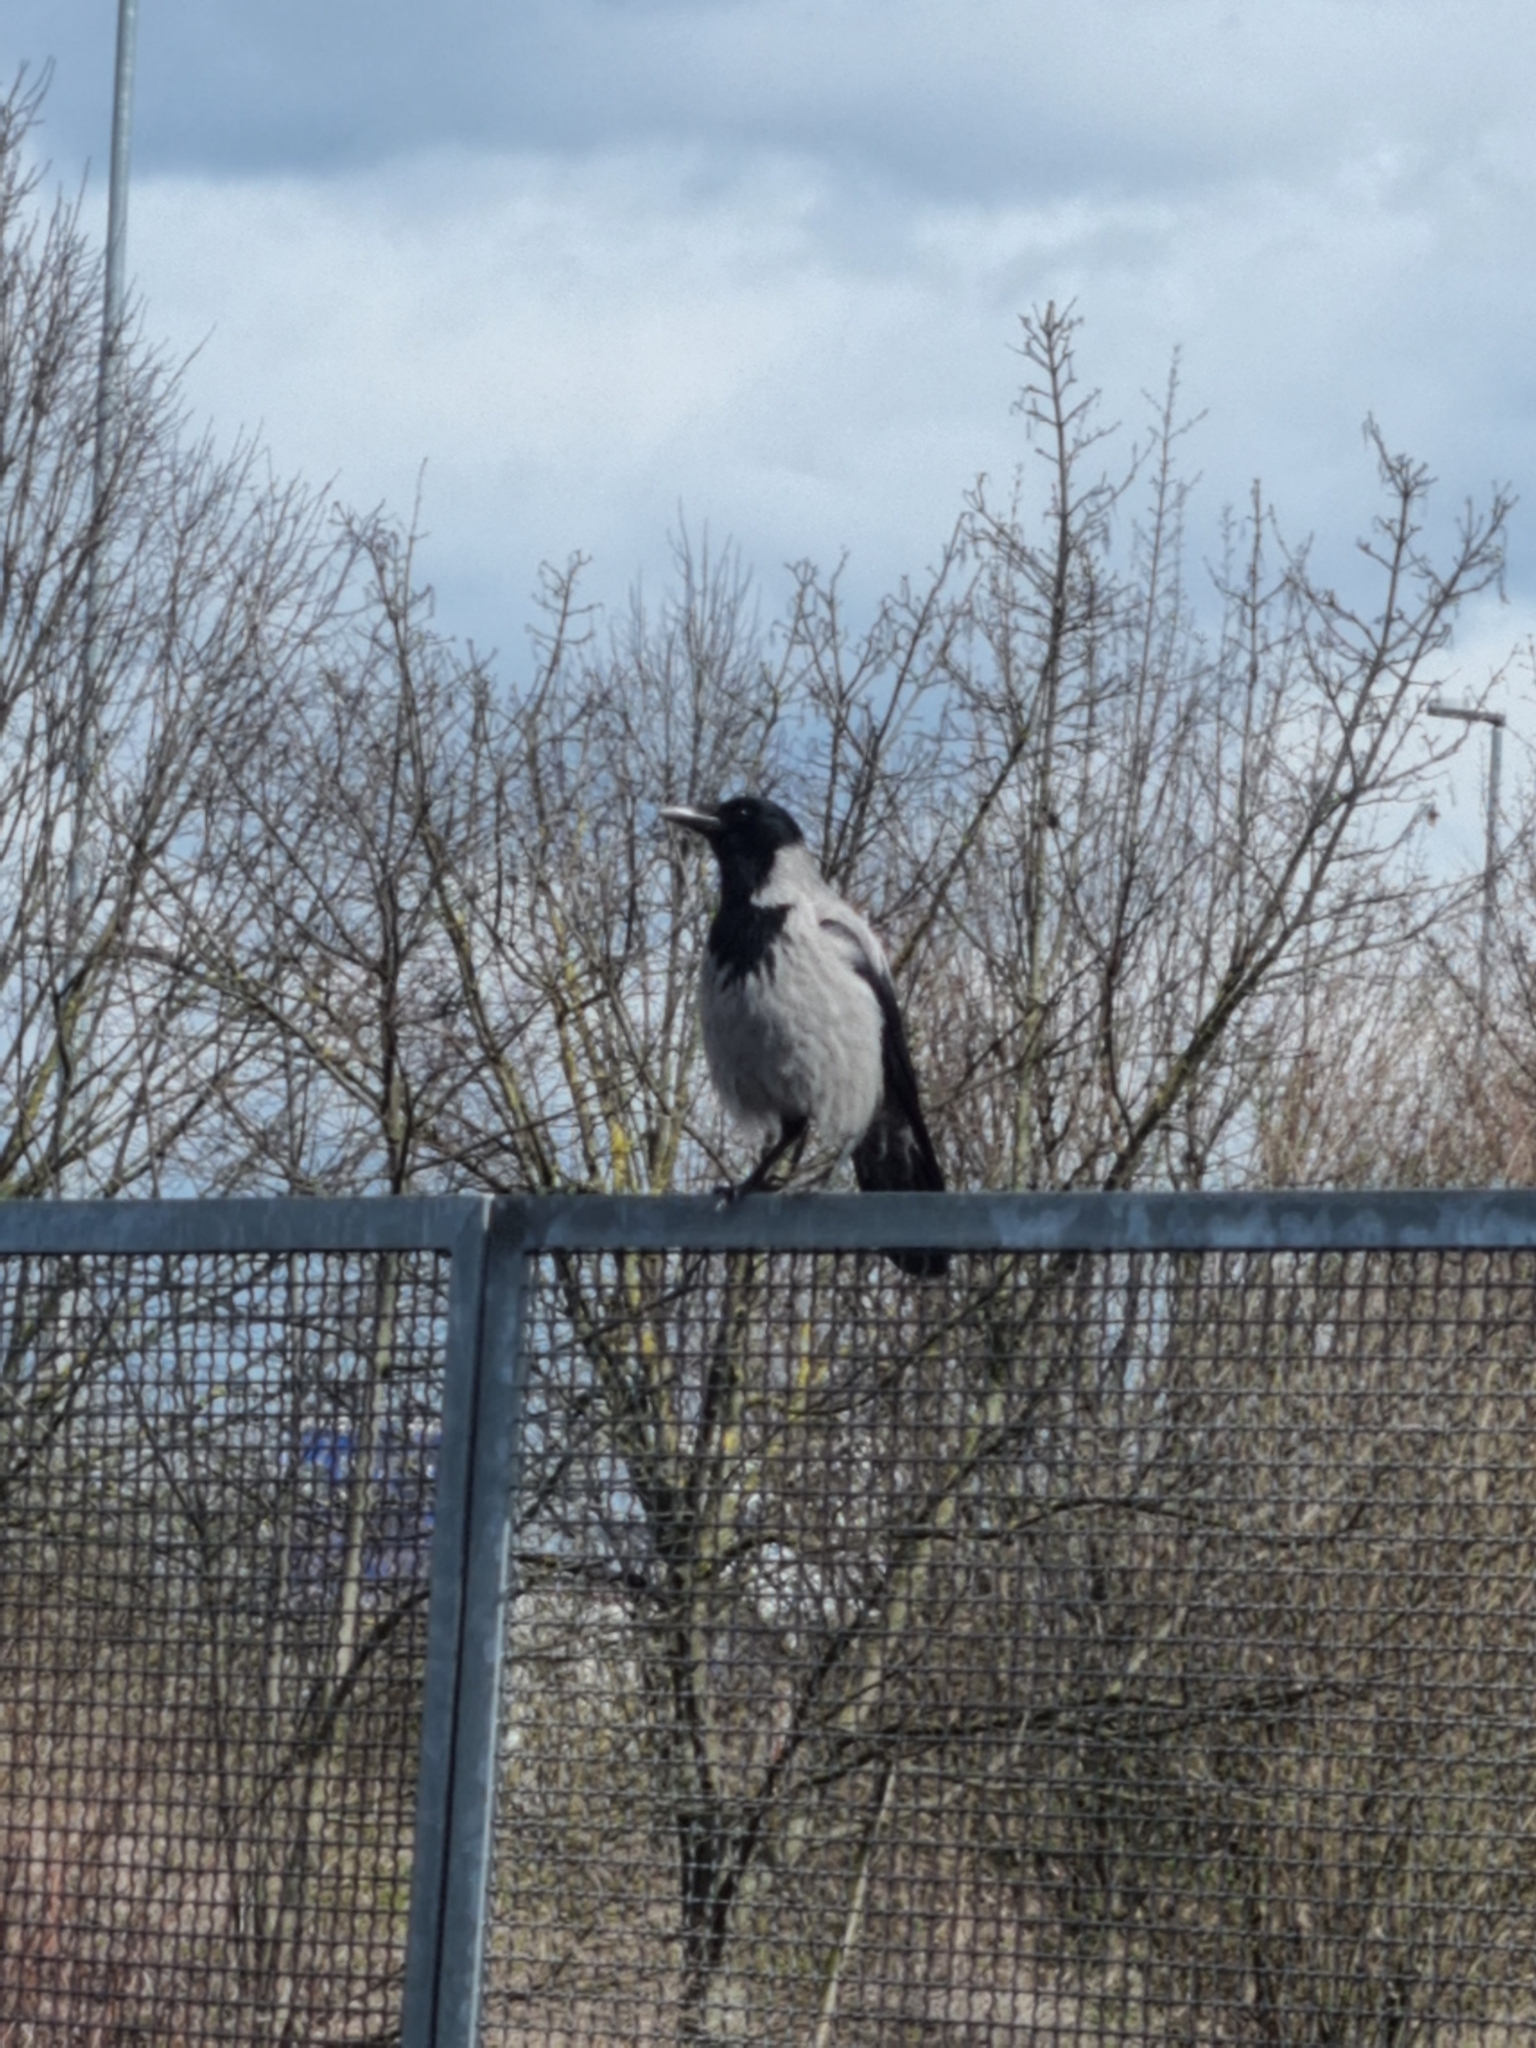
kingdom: Animalia
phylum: Chordata
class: Aves
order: Passeriformes
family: Corvidae
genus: Corvus
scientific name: Corvus cornix
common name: Hooded crow
